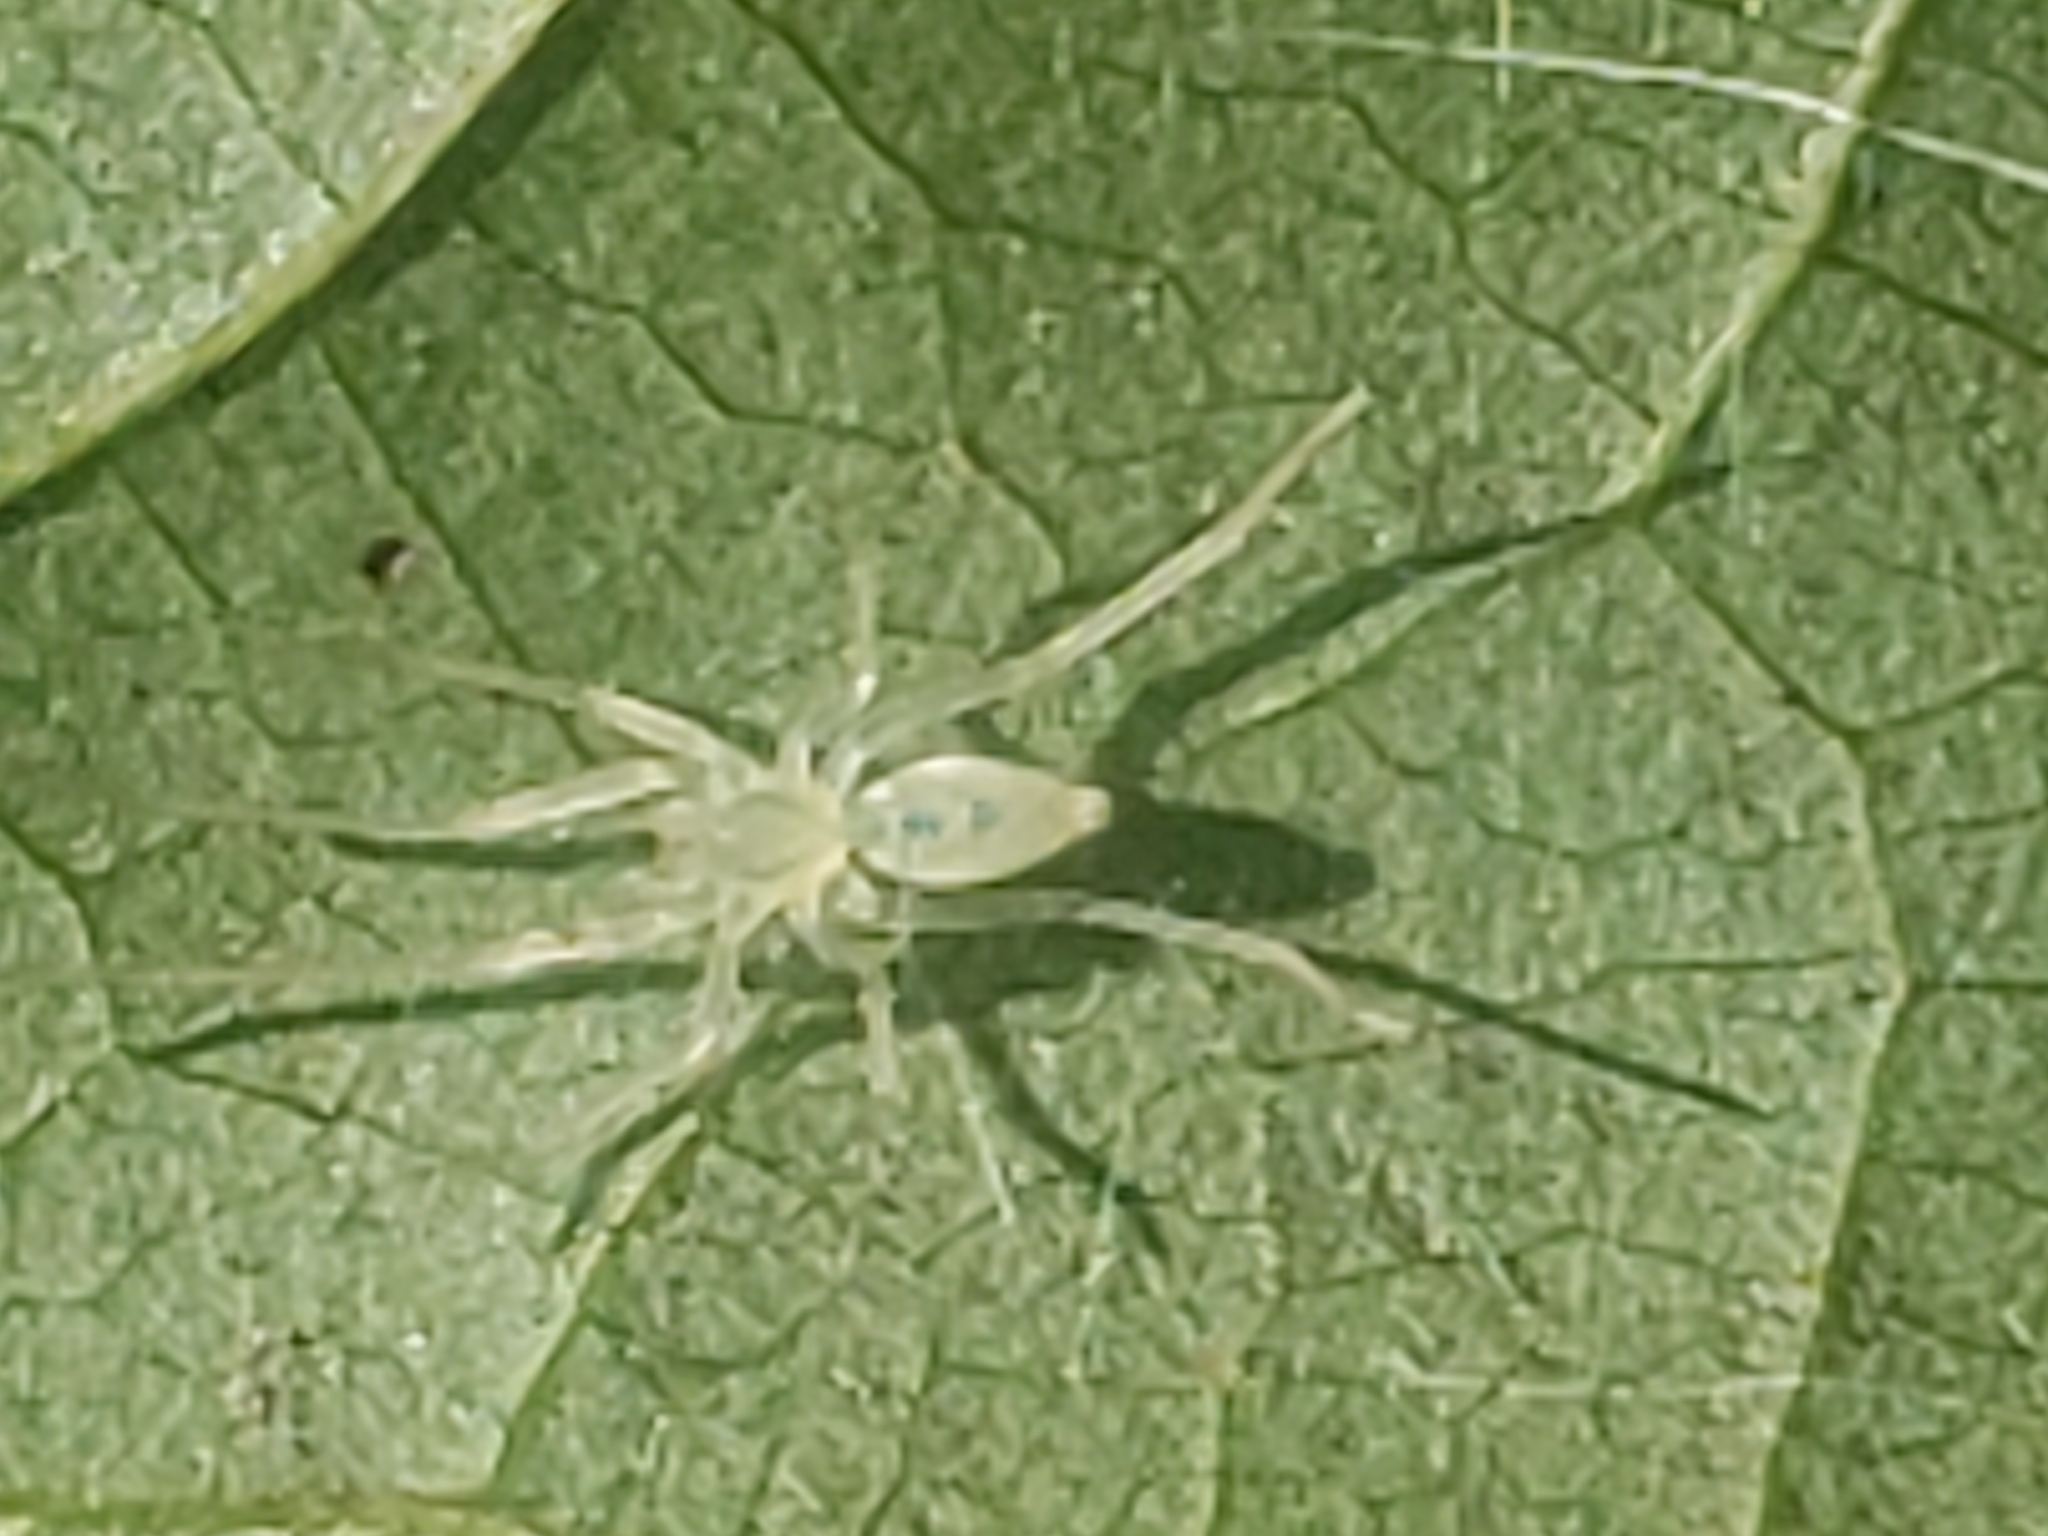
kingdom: Animalia
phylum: Arthropoda
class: Arachnida
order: Araneae
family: Anyphaenidae
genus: Wulfila
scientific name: Wulfila albens
